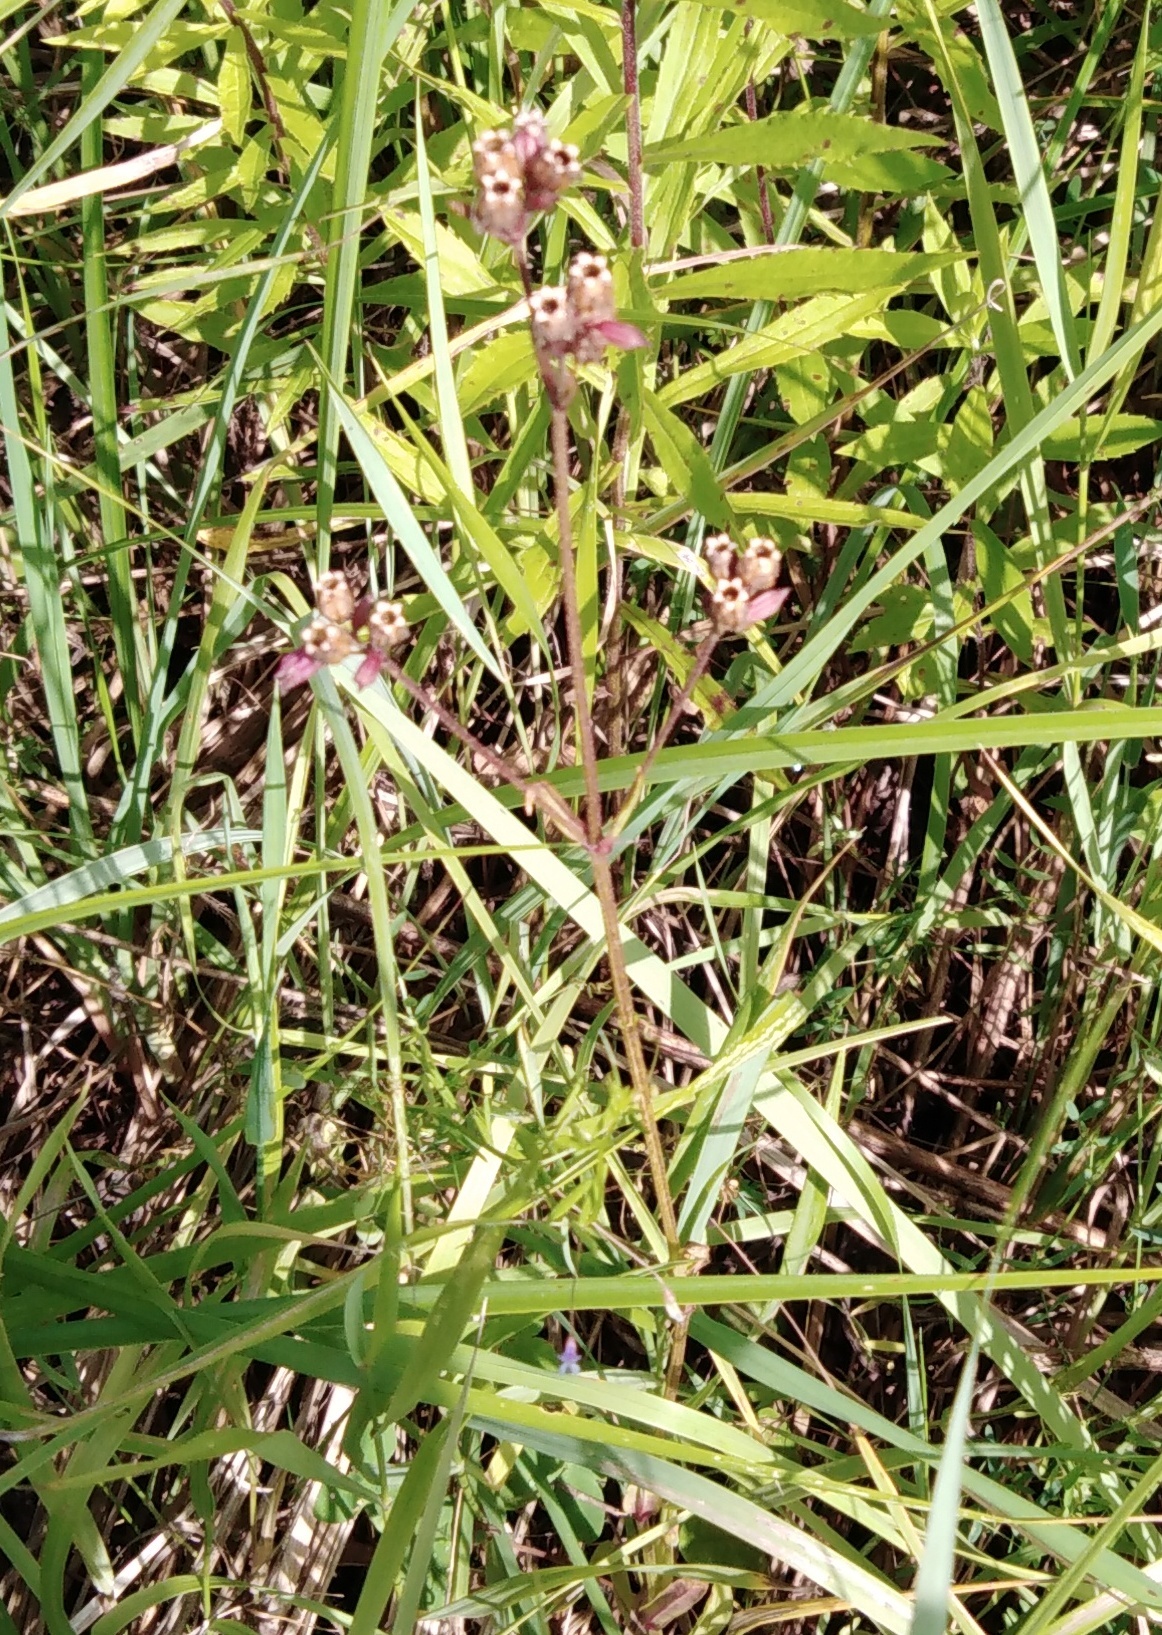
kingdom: Plantae
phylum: Tracheophyta
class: Magnoliopsida
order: Caryophyllales
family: Caryophyllaceae
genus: Silene
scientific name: Silene flos-cuculi
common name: Ragged-robin
